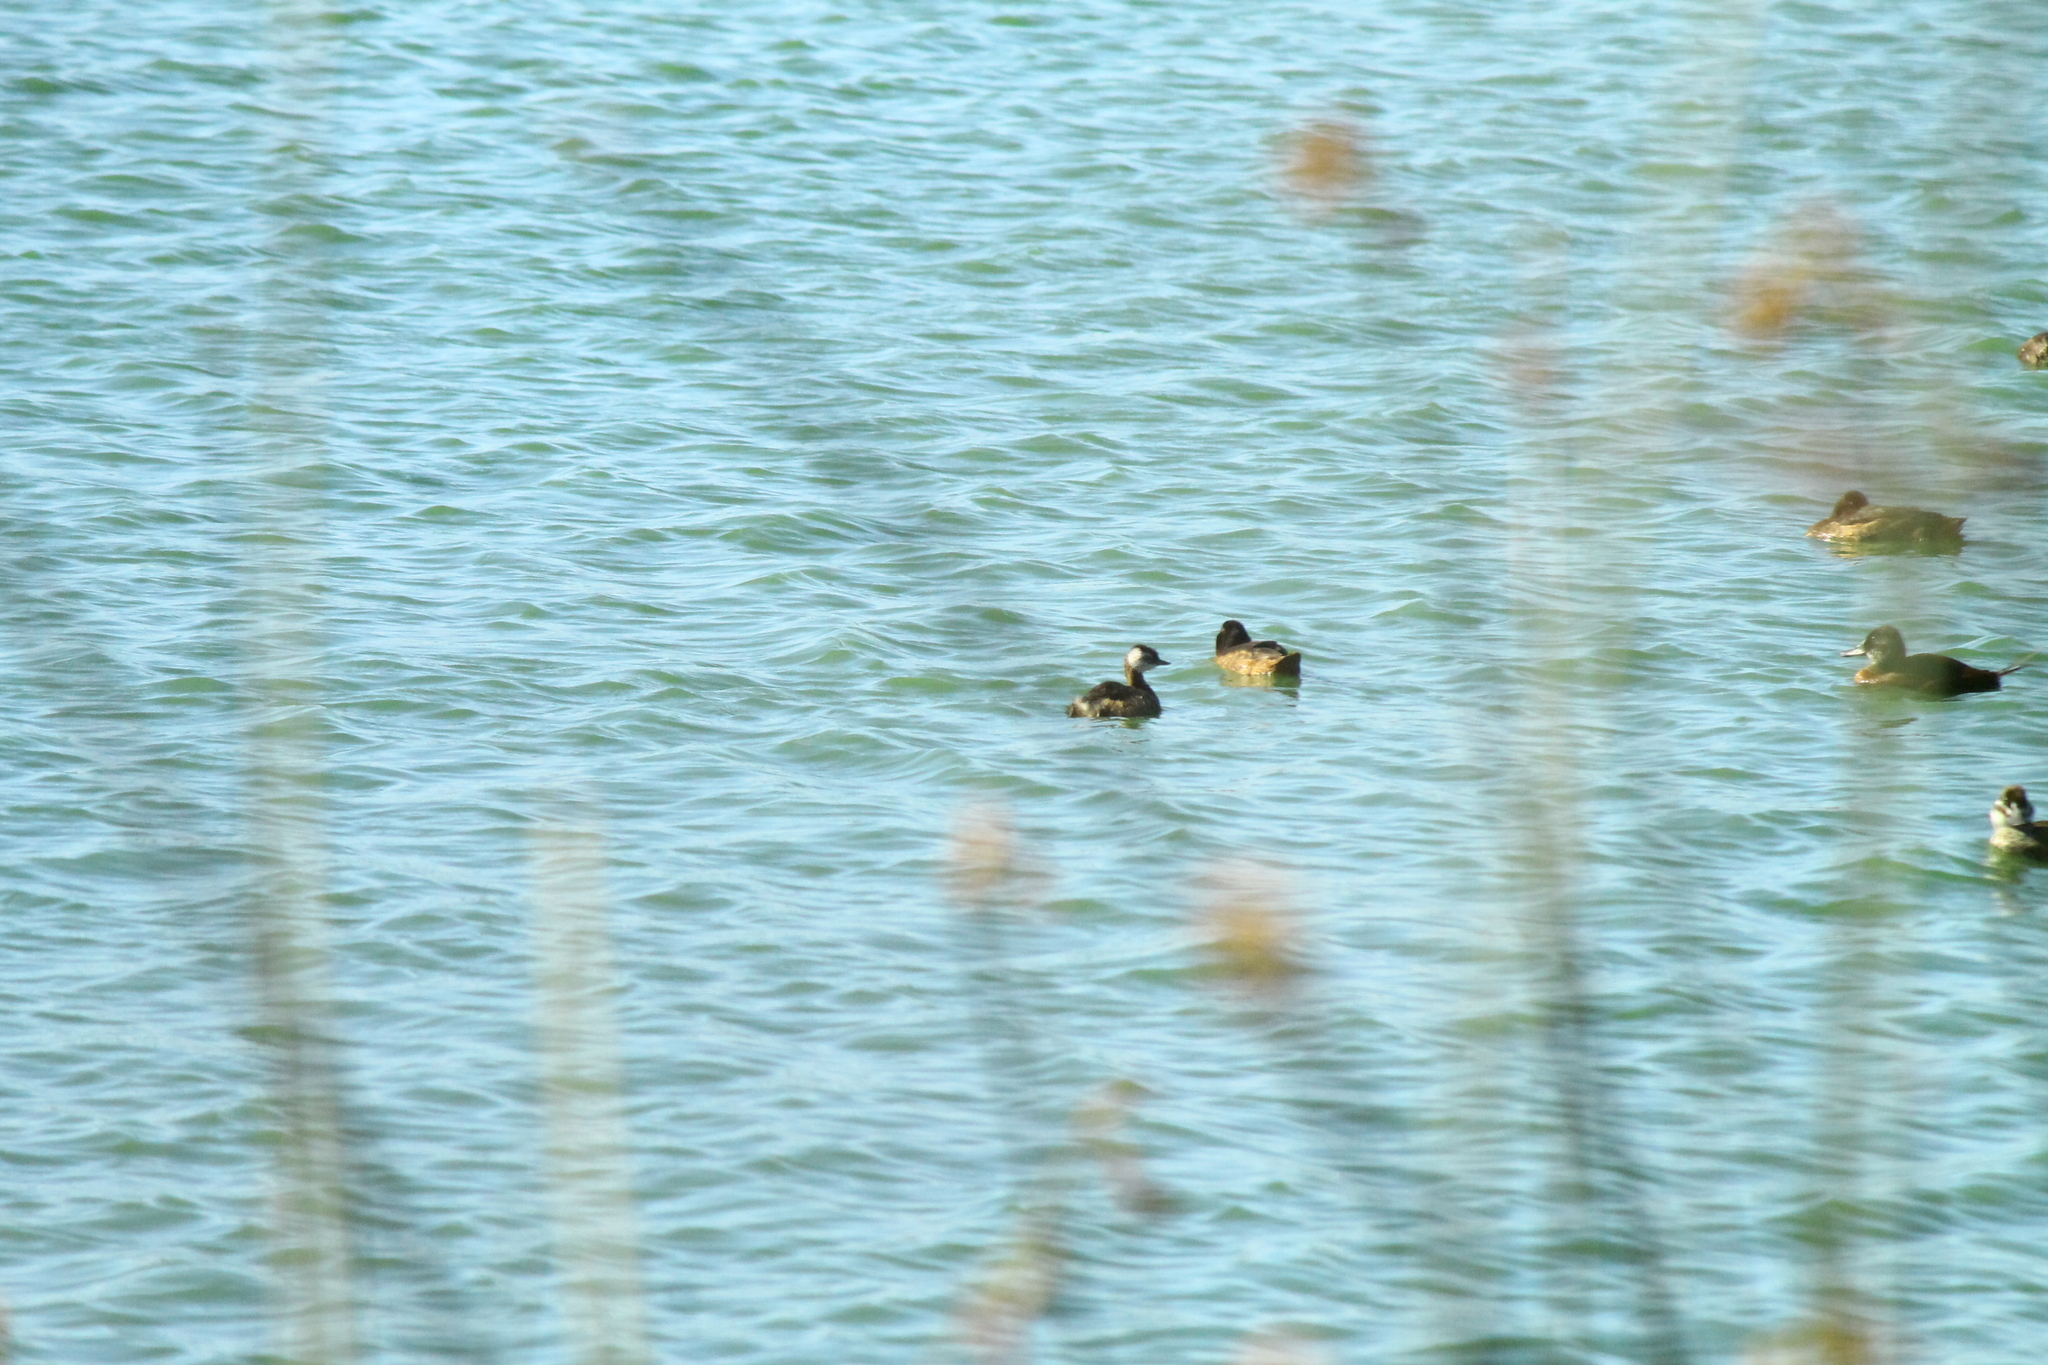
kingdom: Animalia
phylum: Chordata
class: Aves
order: Podicipediformes
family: Podicipedidae
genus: Rollandia
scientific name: Rollandia rolland
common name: White-tufted grebe
